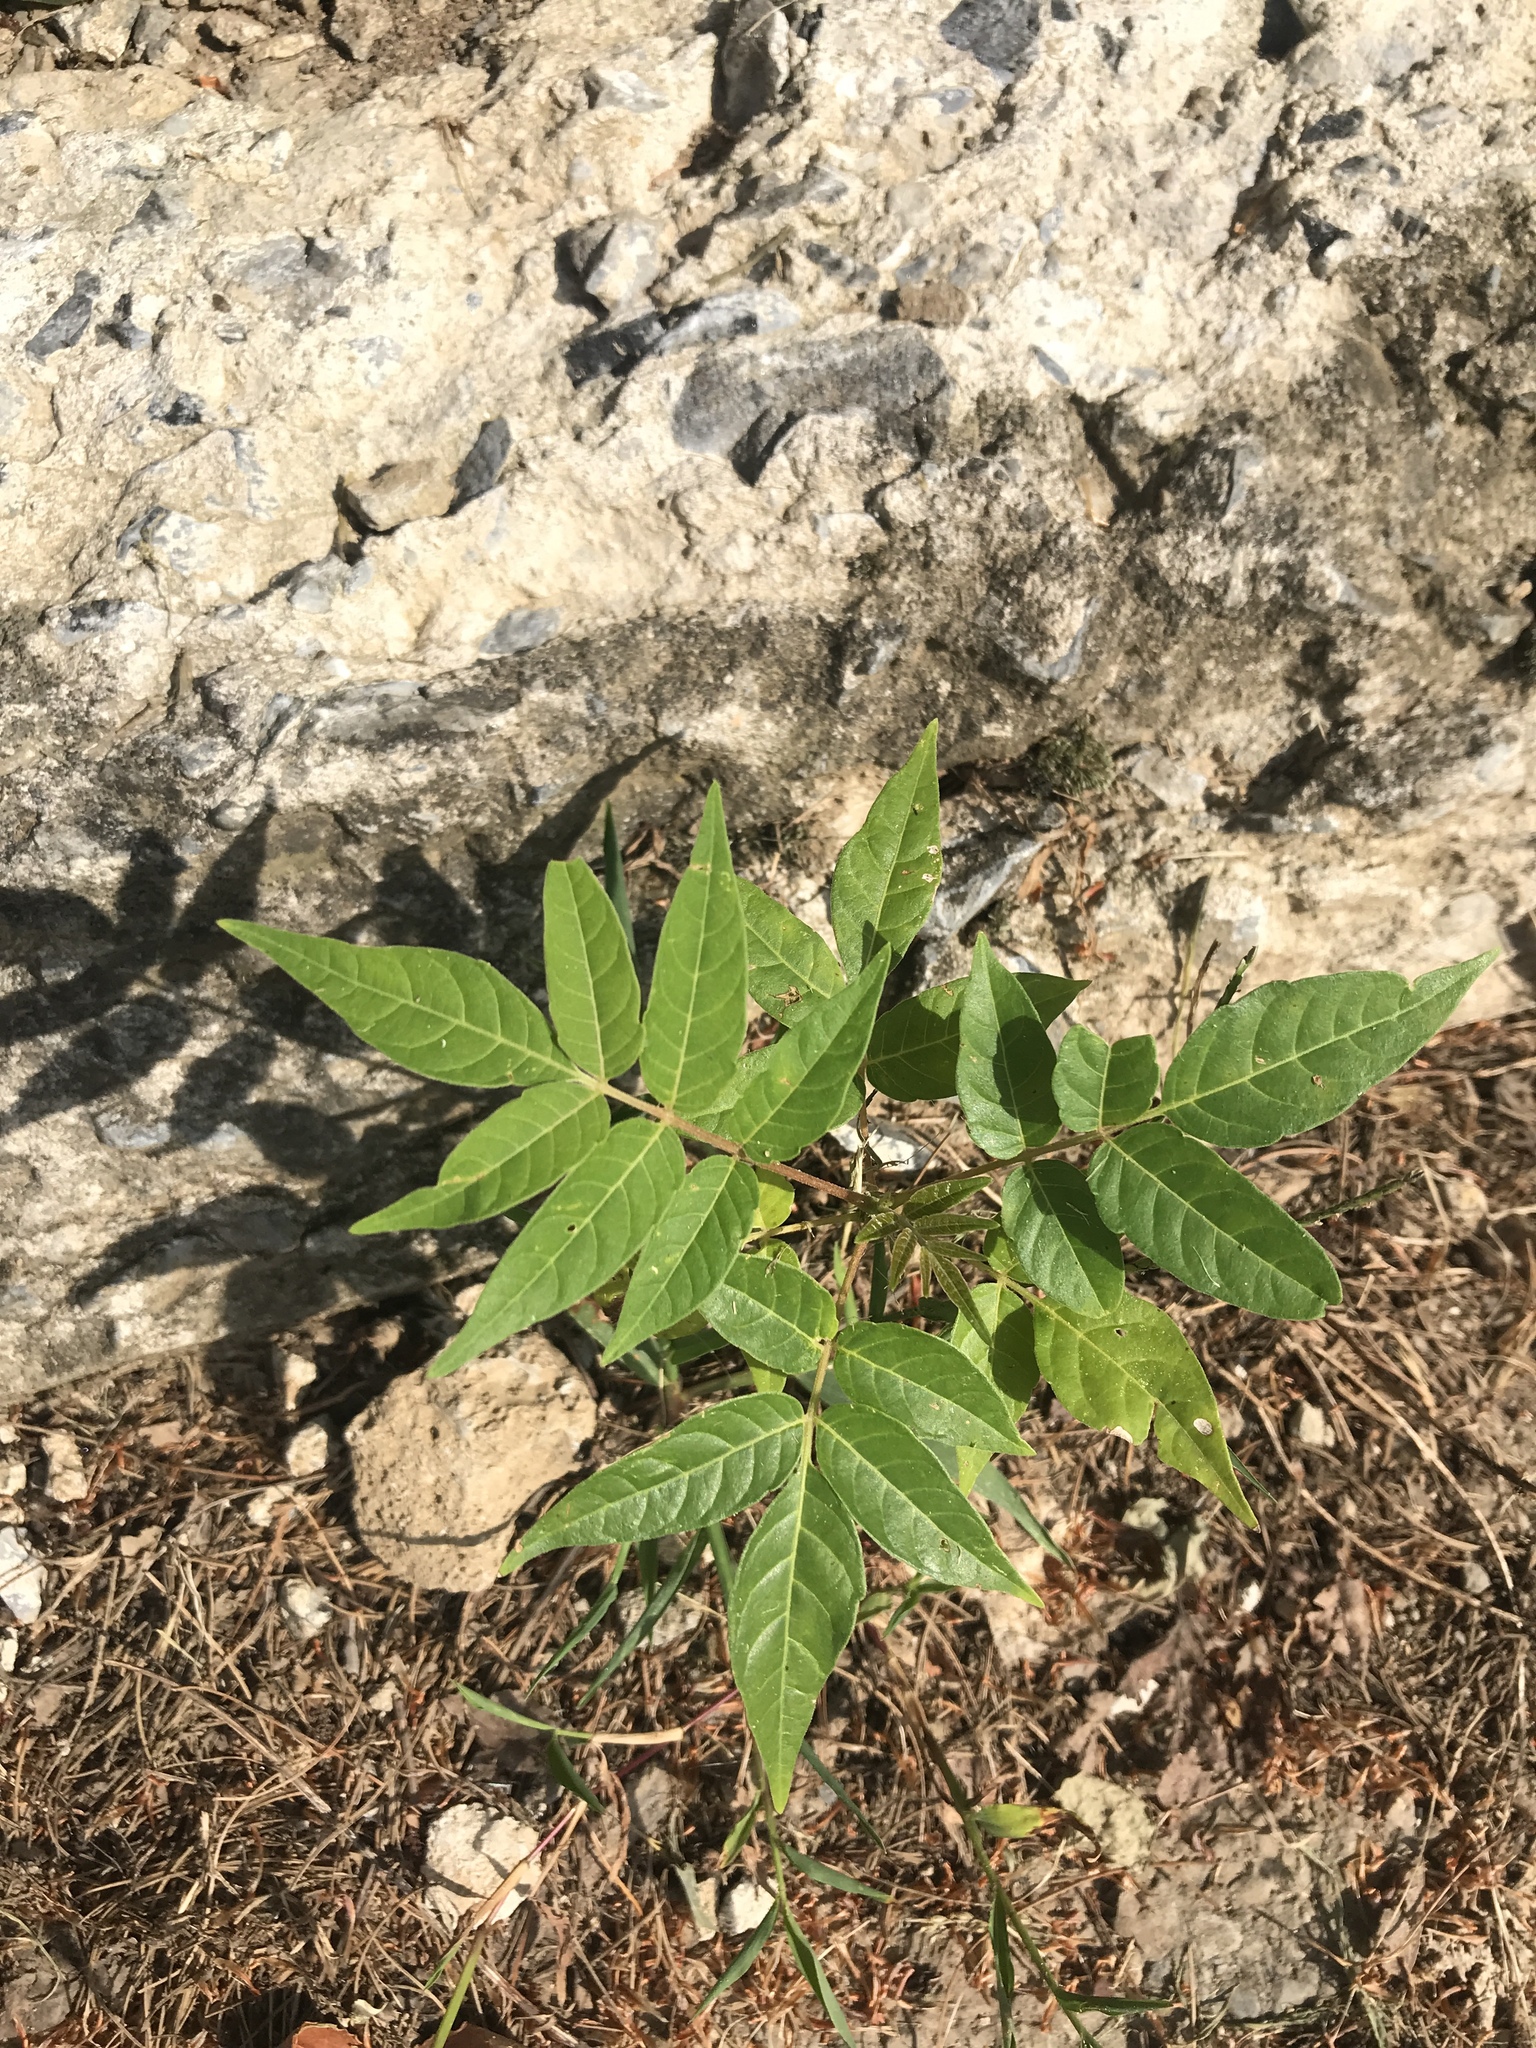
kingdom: Plantae
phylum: Tracheophyta
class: Magnoliopsida
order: Sapindales
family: Simaroubaceae
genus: Ailanthus
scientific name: Ailanthus altissima
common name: Tree-of-heaven
